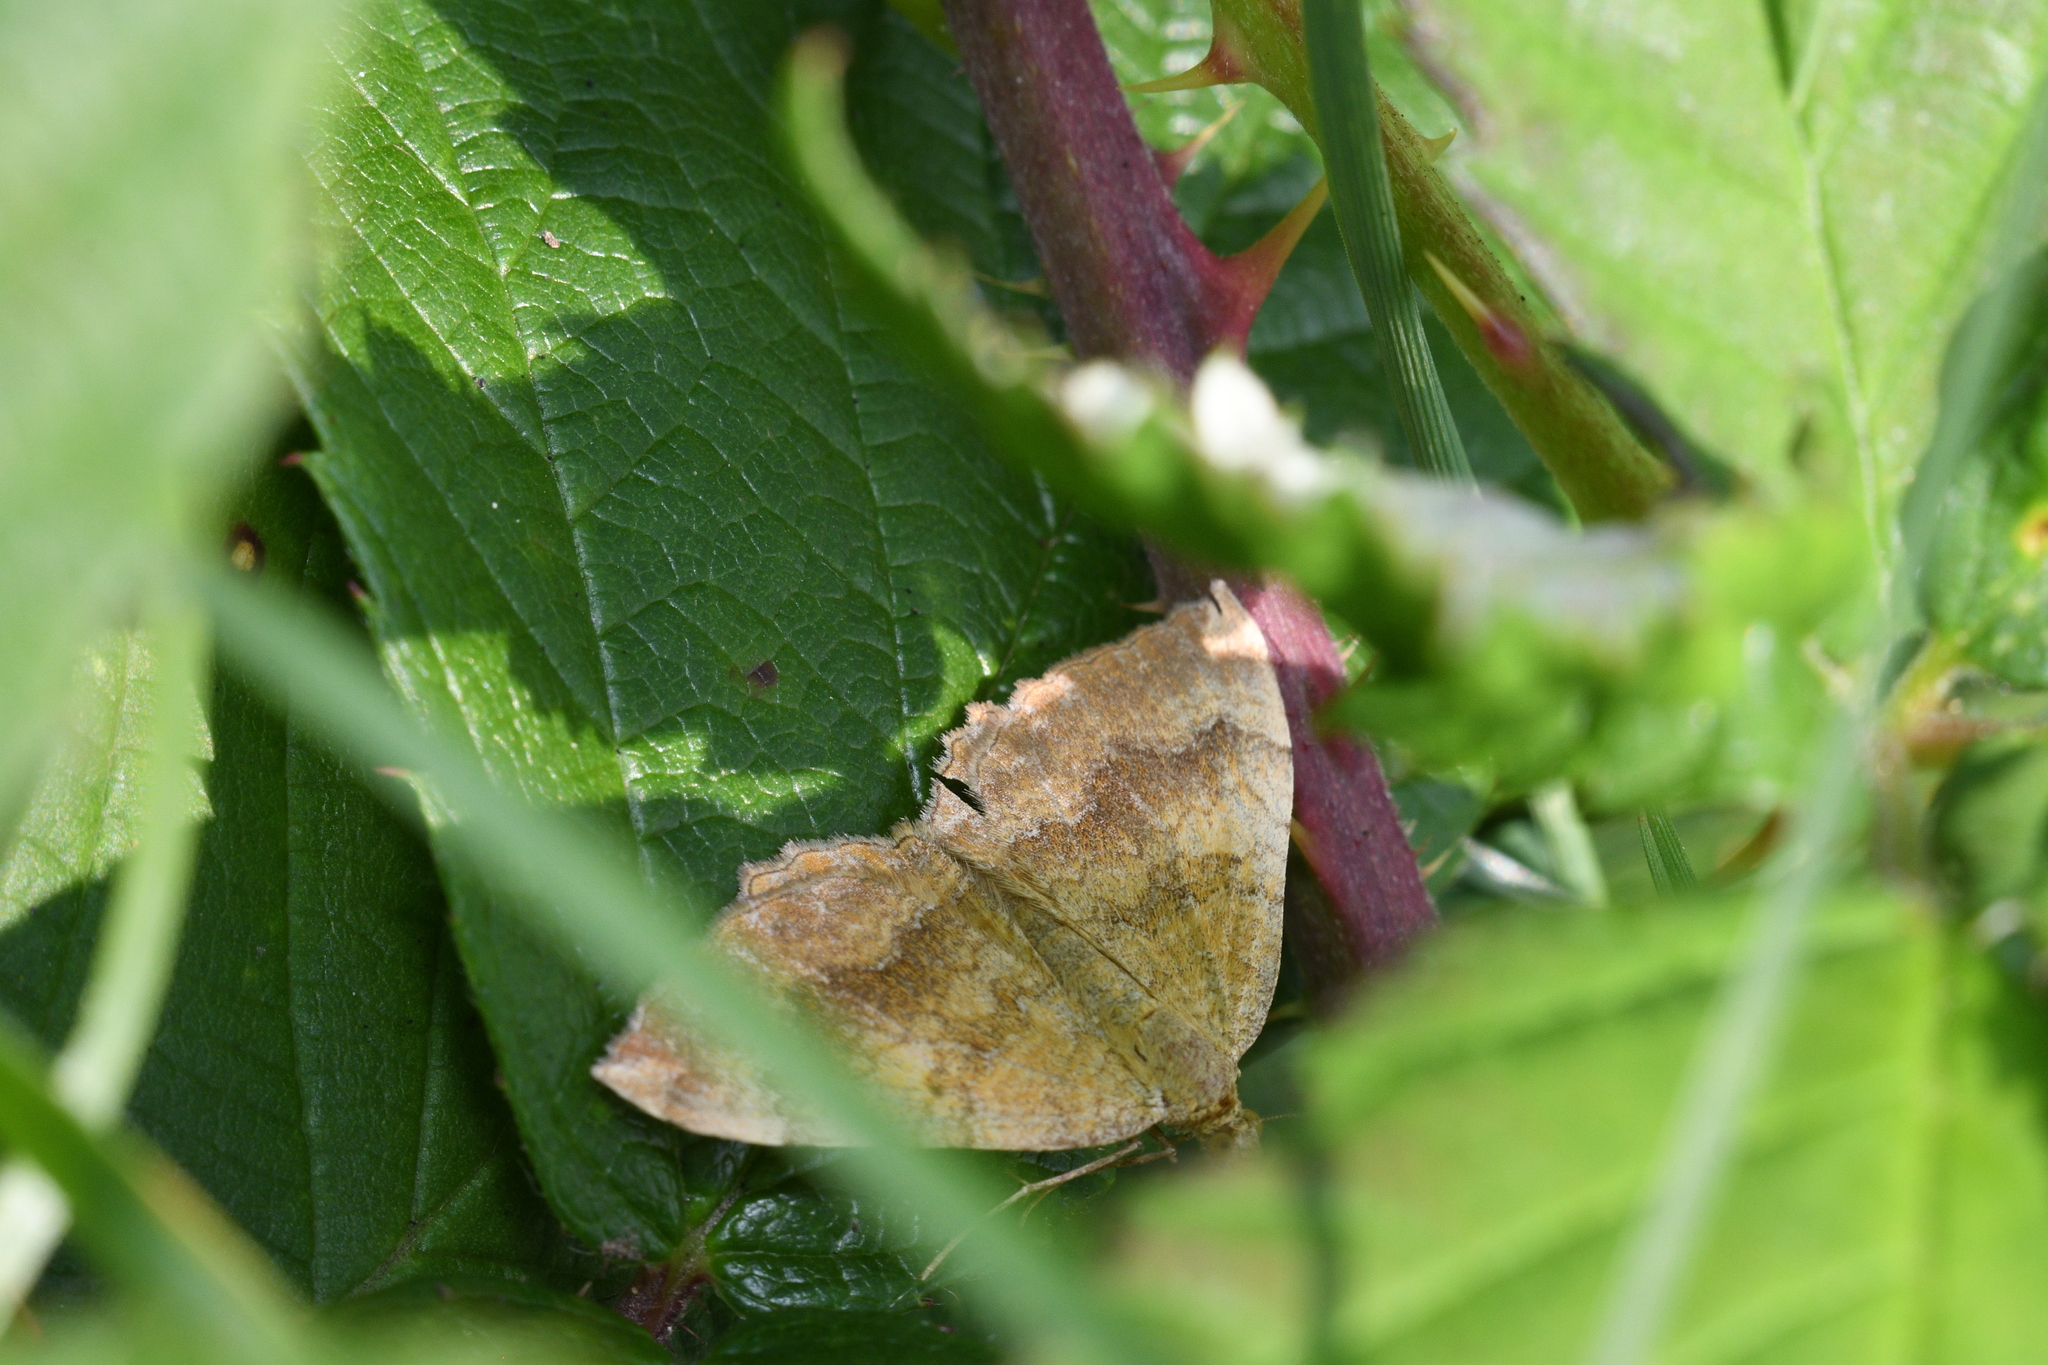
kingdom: Animalia
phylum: Arthropoda
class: Insecta
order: Lepidoptera
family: Geometridae
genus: Camptogramma
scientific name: Camptogramma bilineata
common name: Yellow shell
